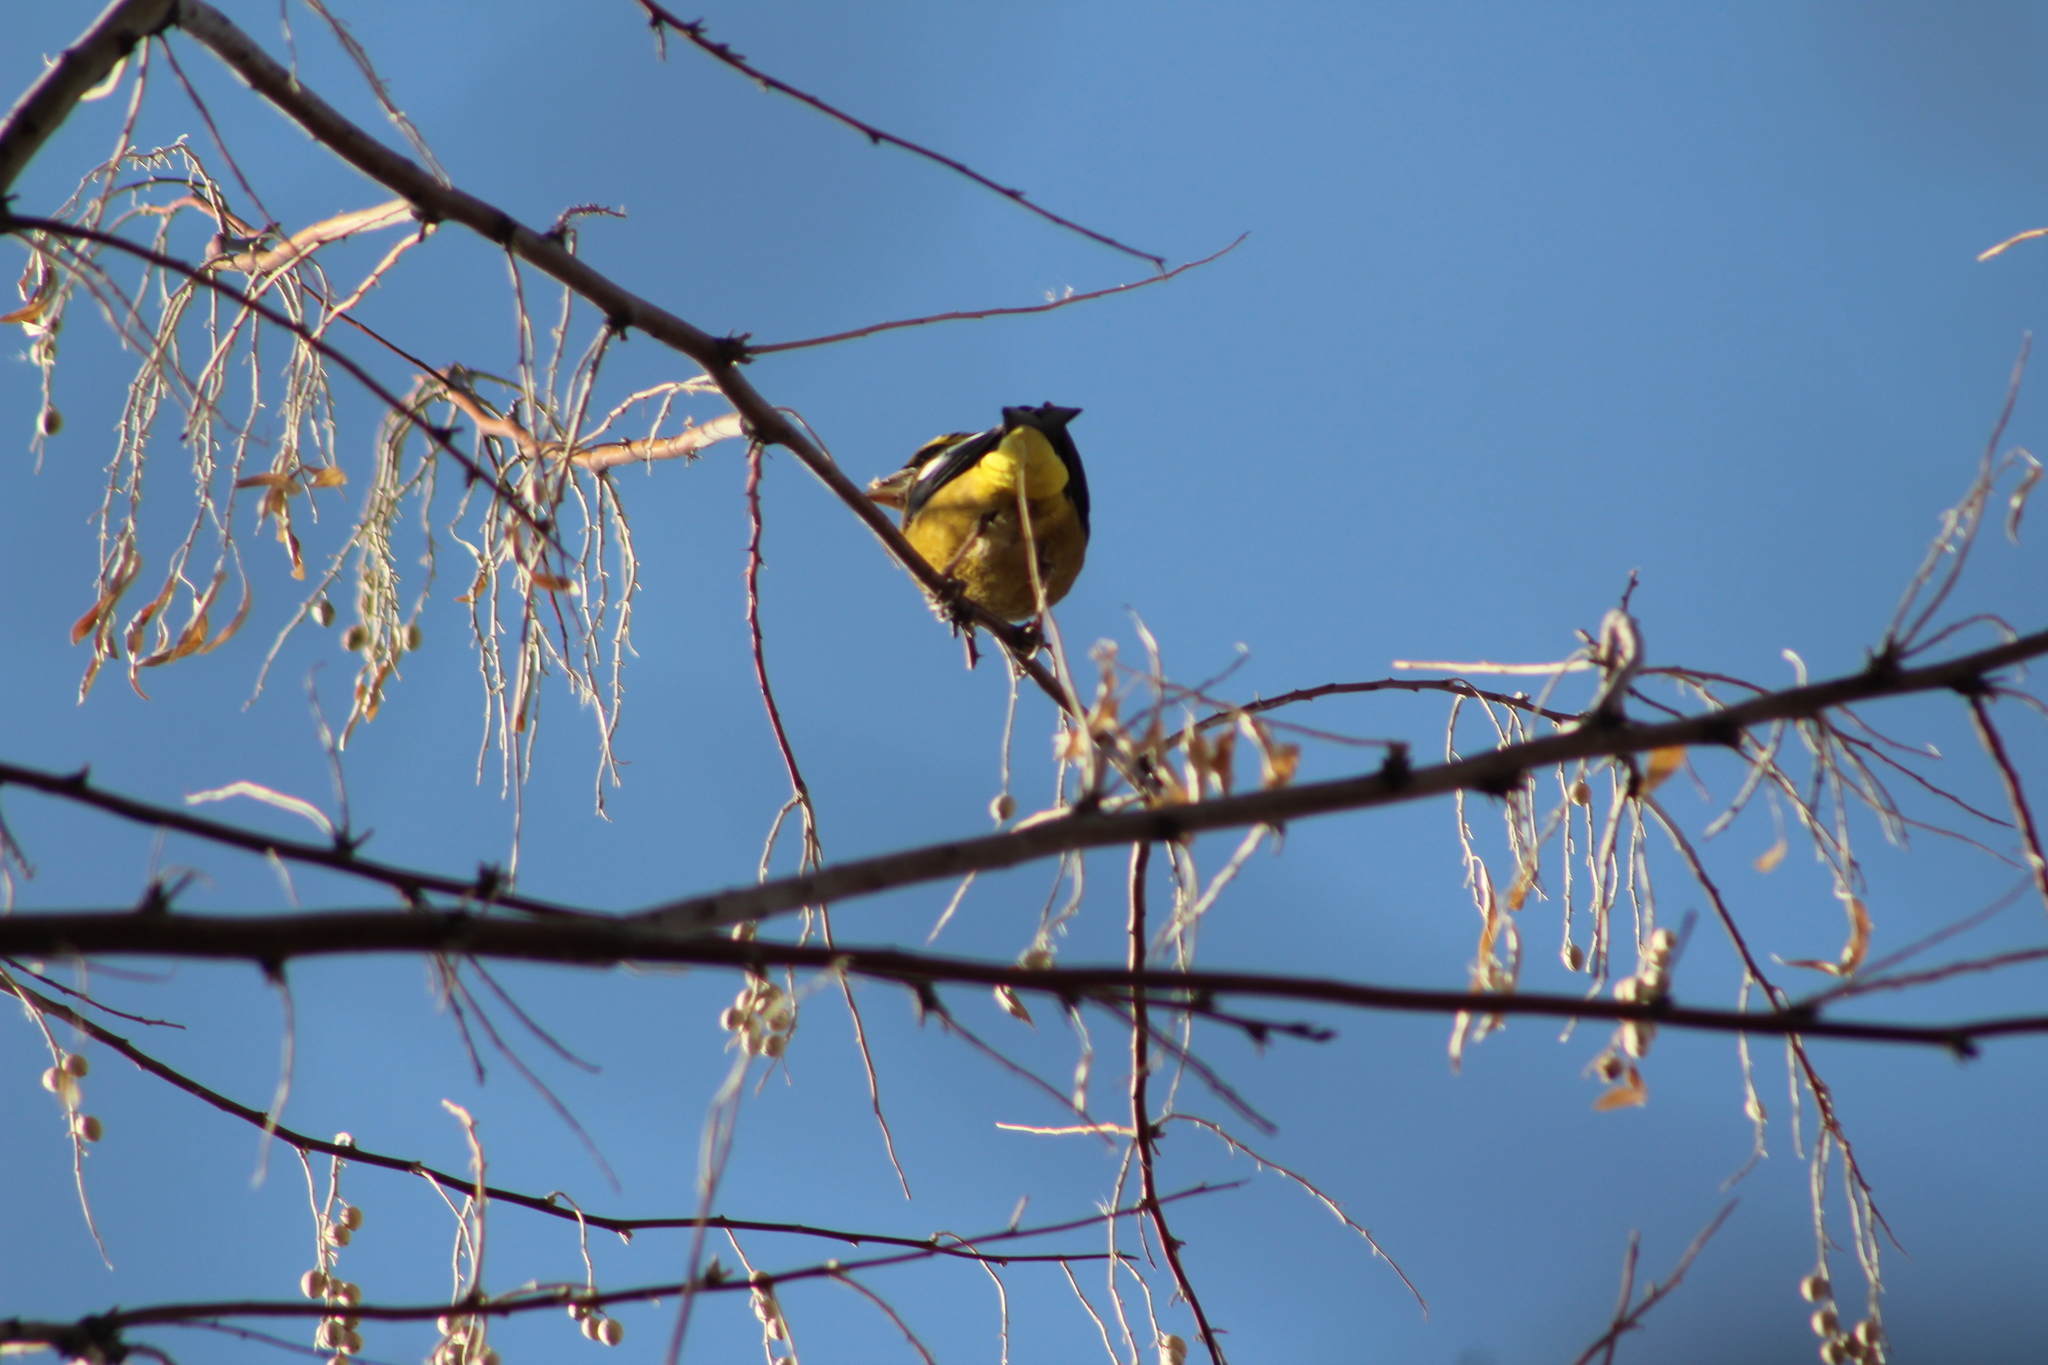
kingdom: Animalia
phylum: Chordata
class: Aves
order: Passeriformes
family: Fringillidae
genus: Hesperiphona
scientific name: Hesperiphona vespertina
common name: Evening grosbeak
